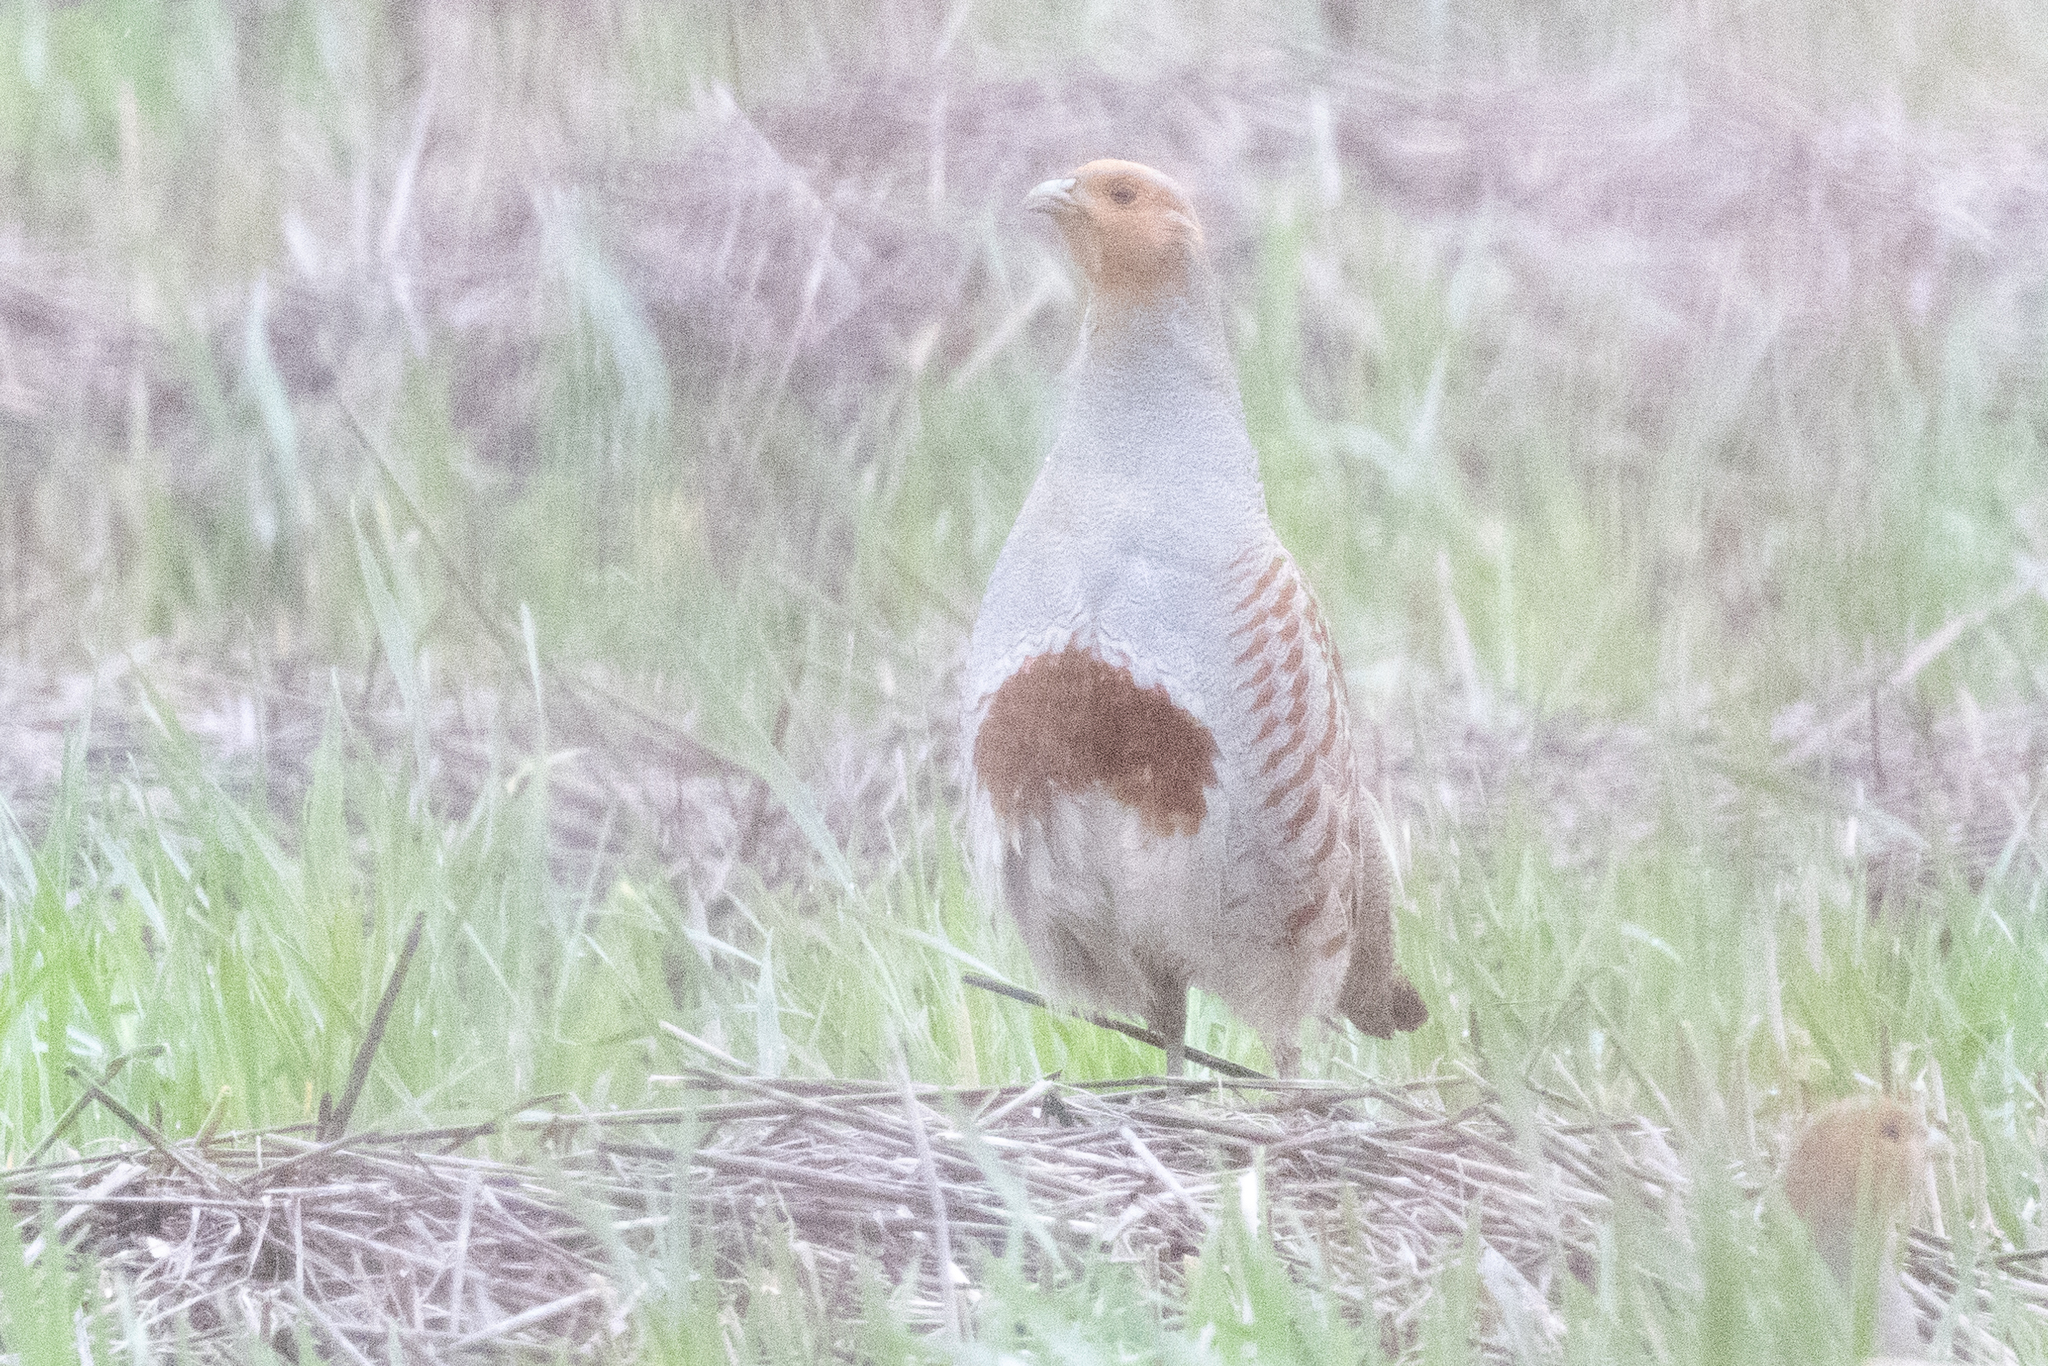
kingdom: Animalia
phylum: Chordata
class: Aves
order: Galliformes
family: Phasianidae
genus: Perdix
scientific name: Perdix perdix
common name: Grey partridge
